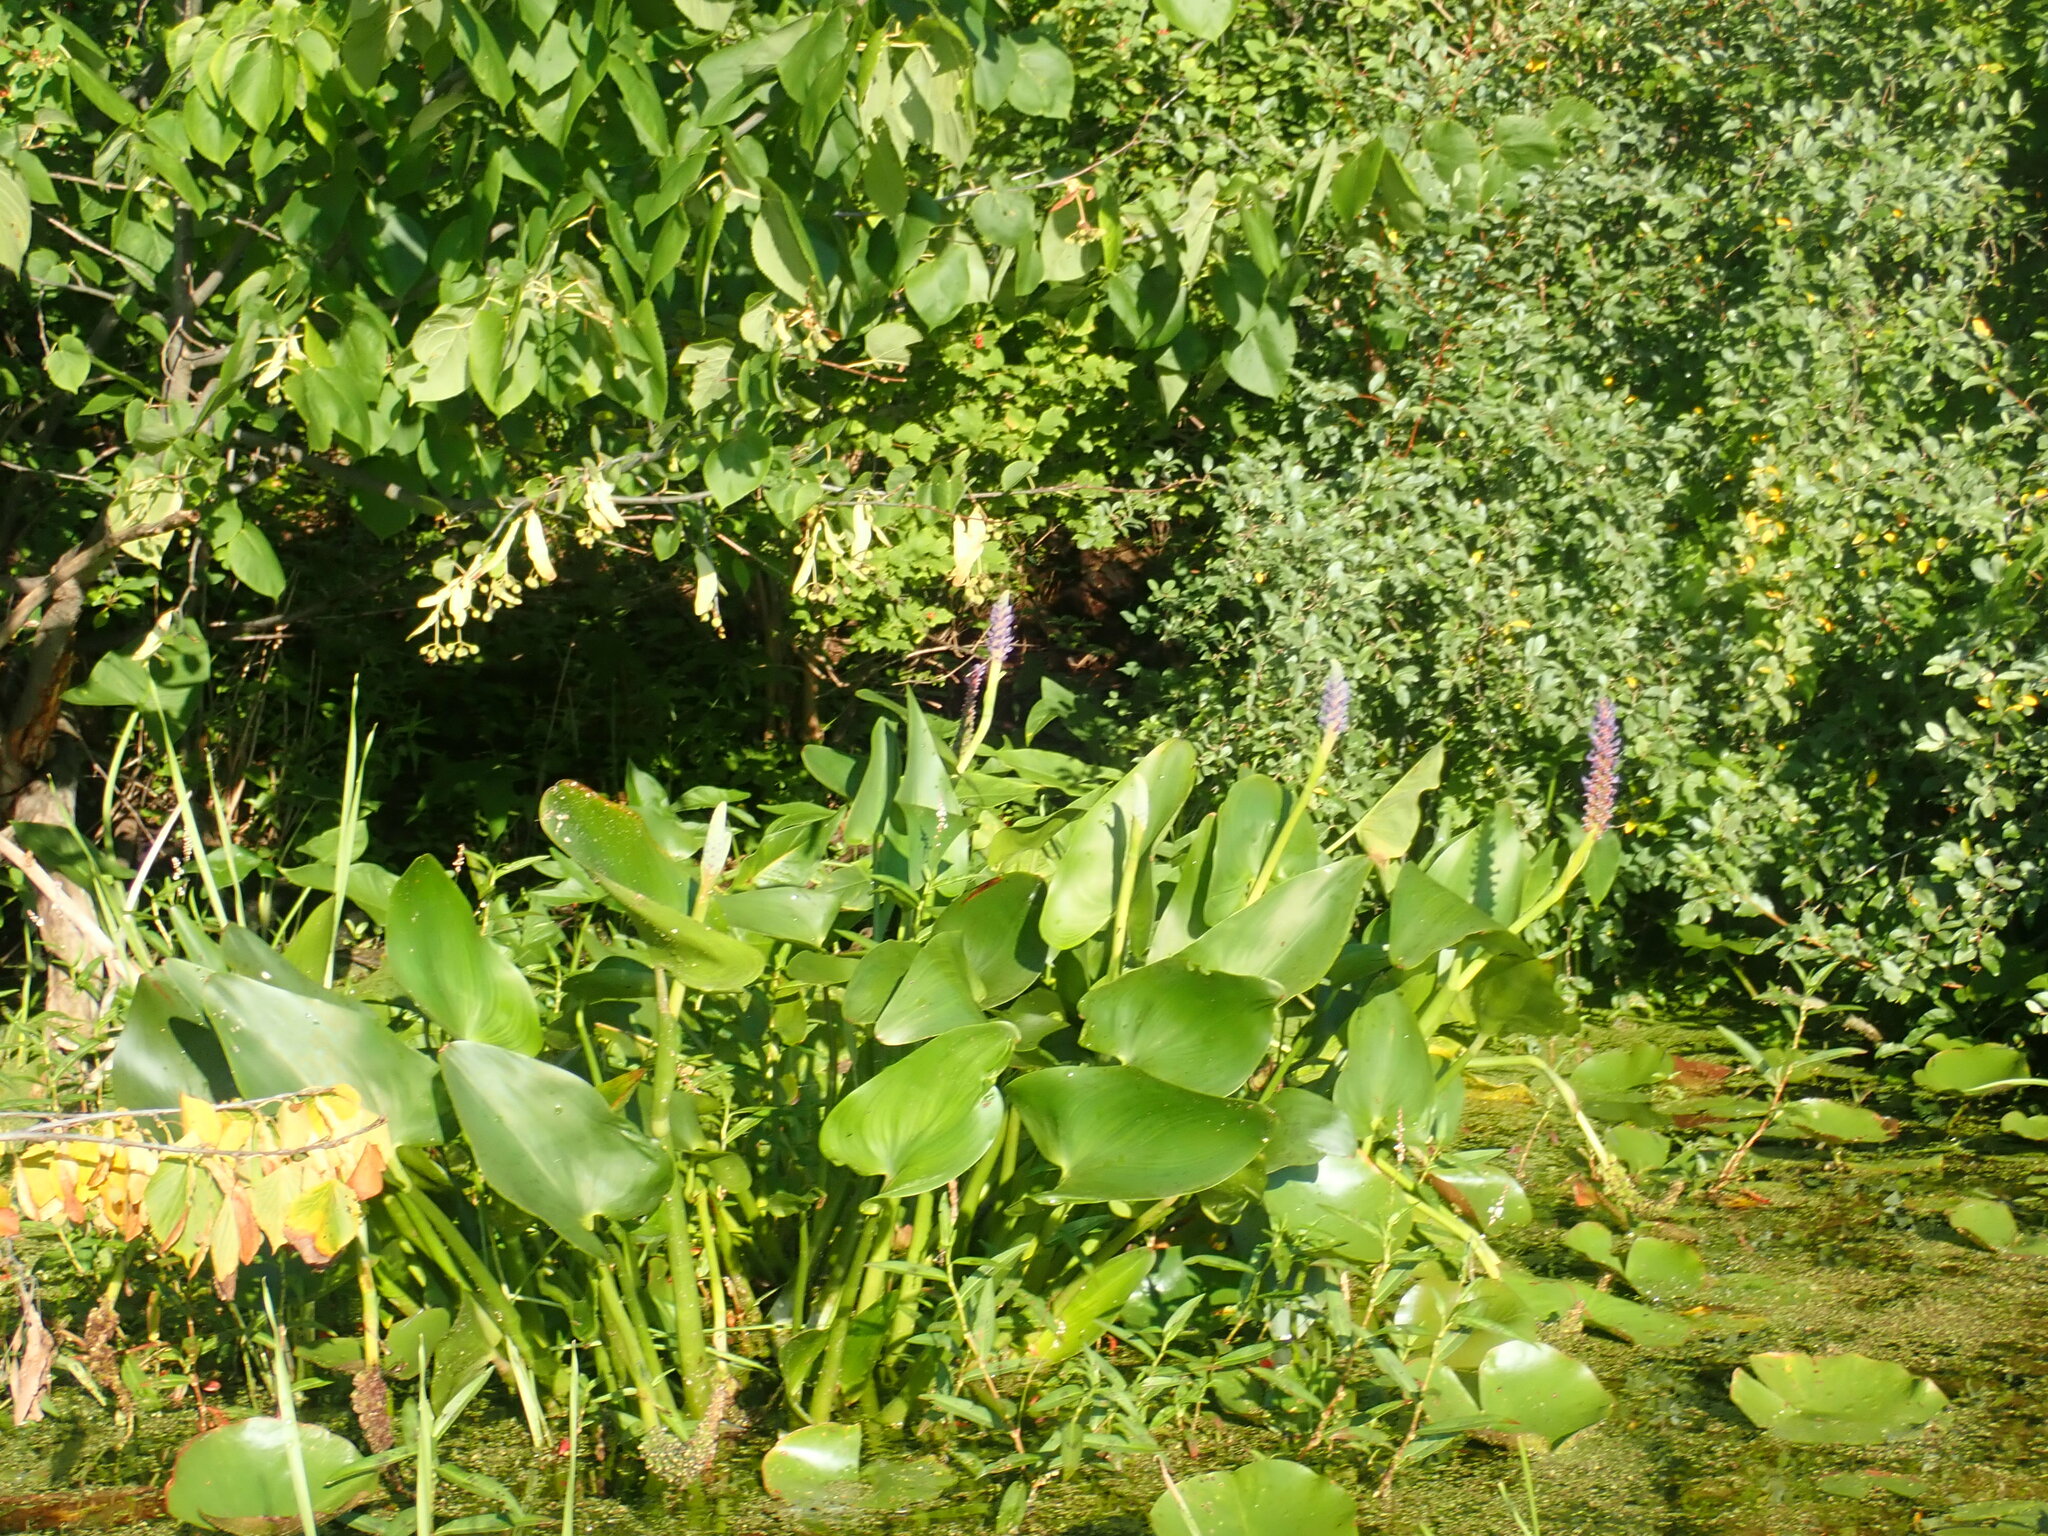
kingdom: Plantae
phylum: Tracheophyta
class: Liliopsida
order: Commelinales
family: Pontederiaceae
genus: Pontederia
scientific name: Pontederia cordata
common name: Pickerelweed
